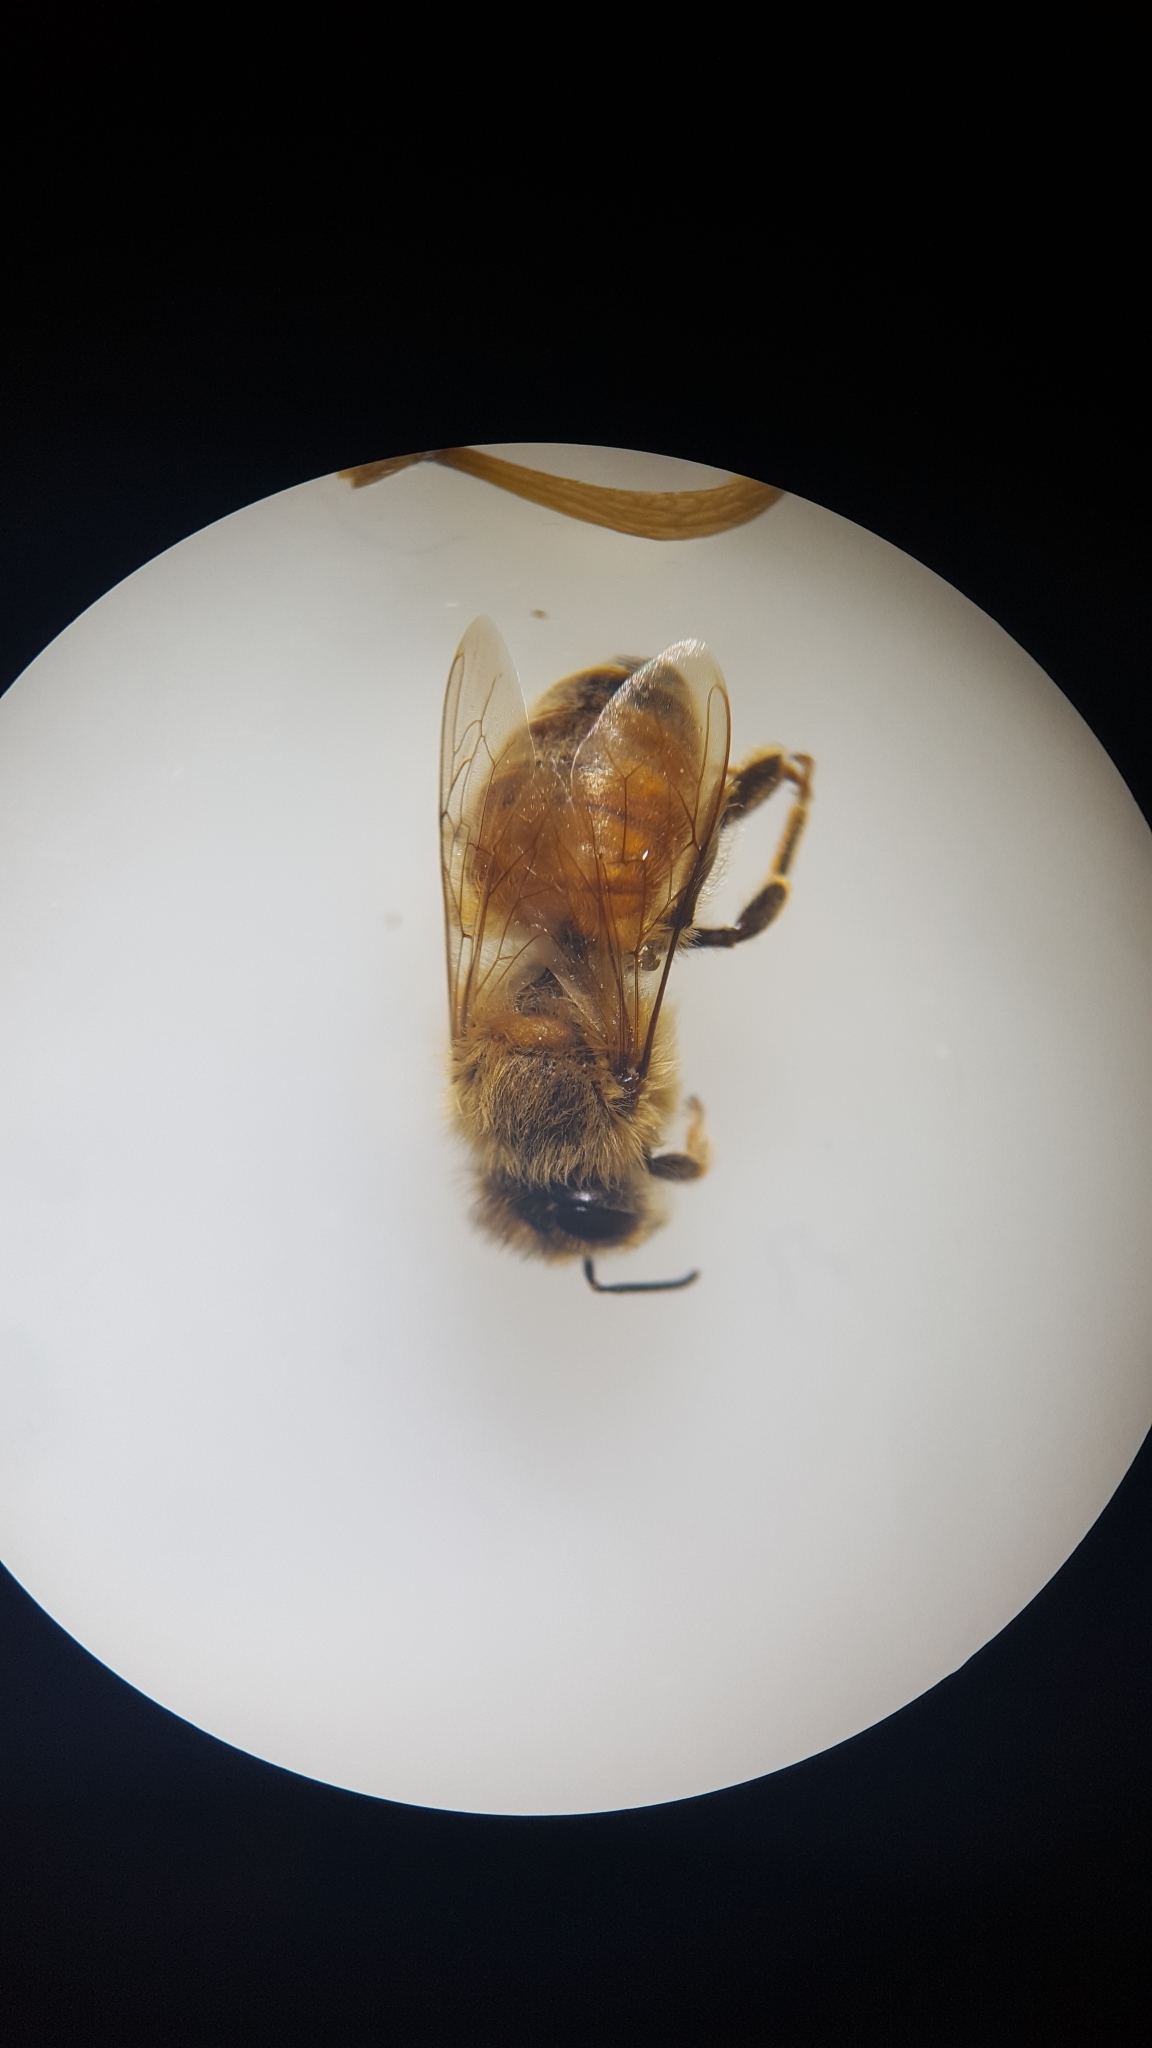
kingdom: Animalia
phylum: Arthropoda
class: Insecta
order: Hymenoptera
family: Apidae
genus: Apis
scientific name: Apis mellifera
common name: Honey bee
